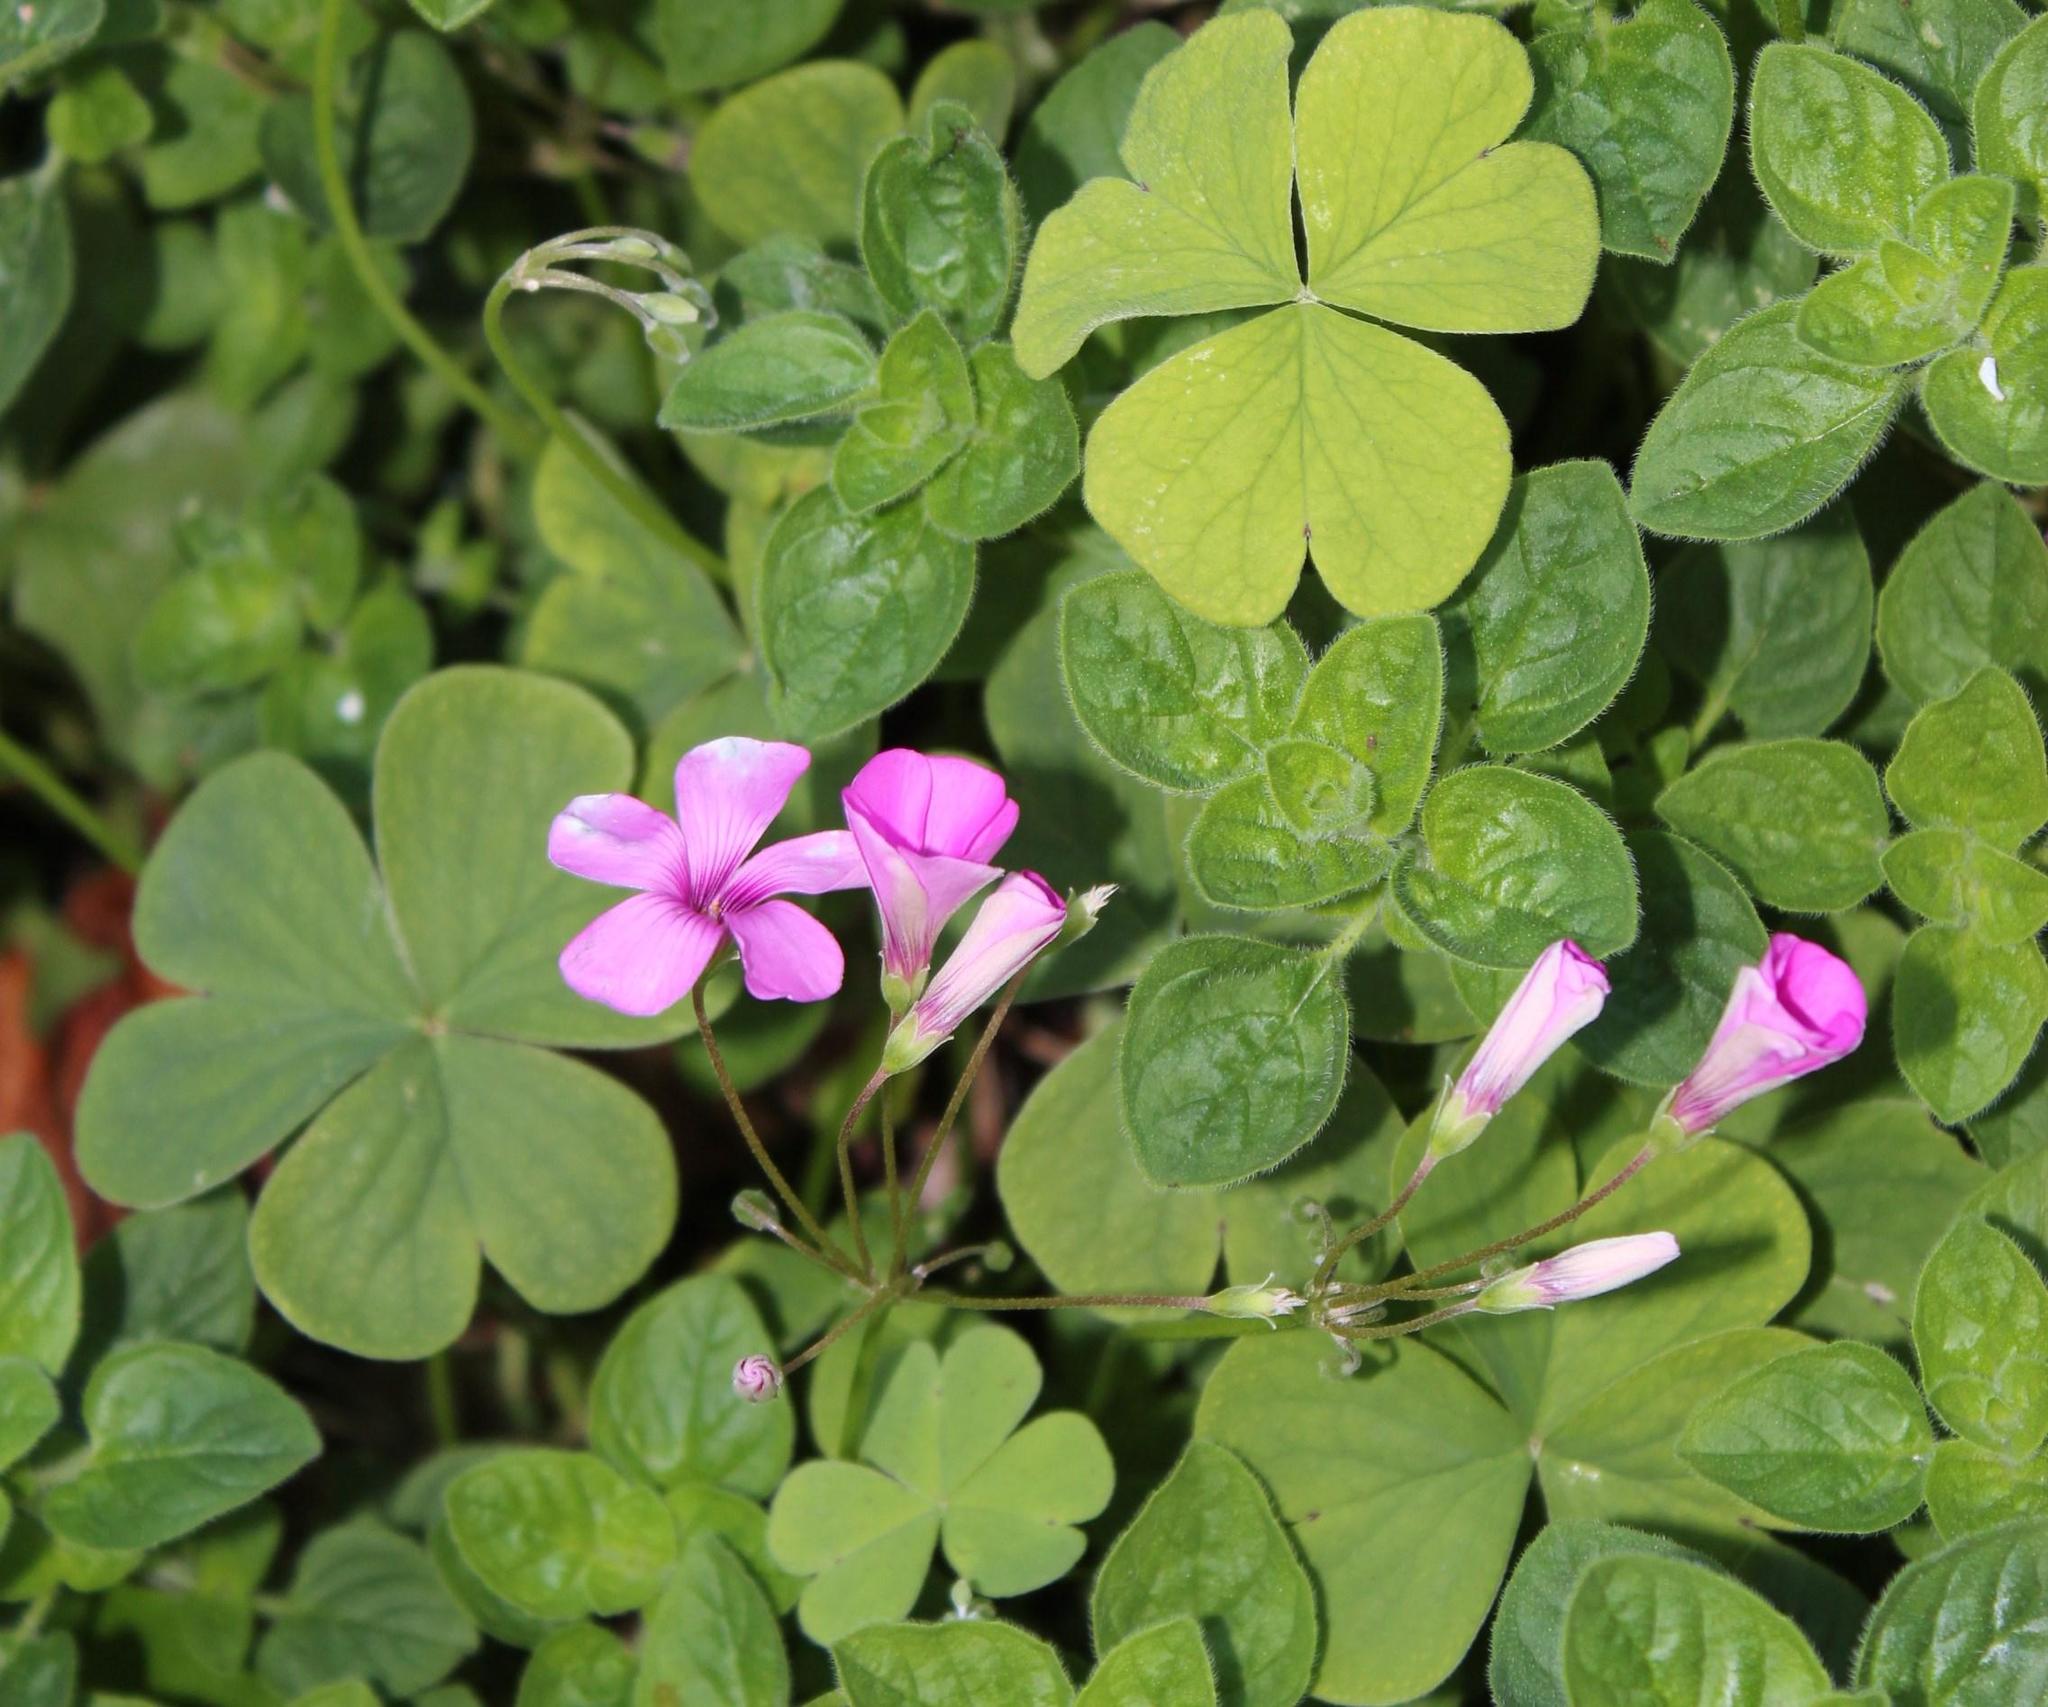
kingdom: Plantae
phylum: Tracheophyta
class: Magnoliopsida
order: Oxalidales
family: Oxalidaceae
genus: Oxalis
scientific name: Oxalis articulata
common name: Pink-sorrel
